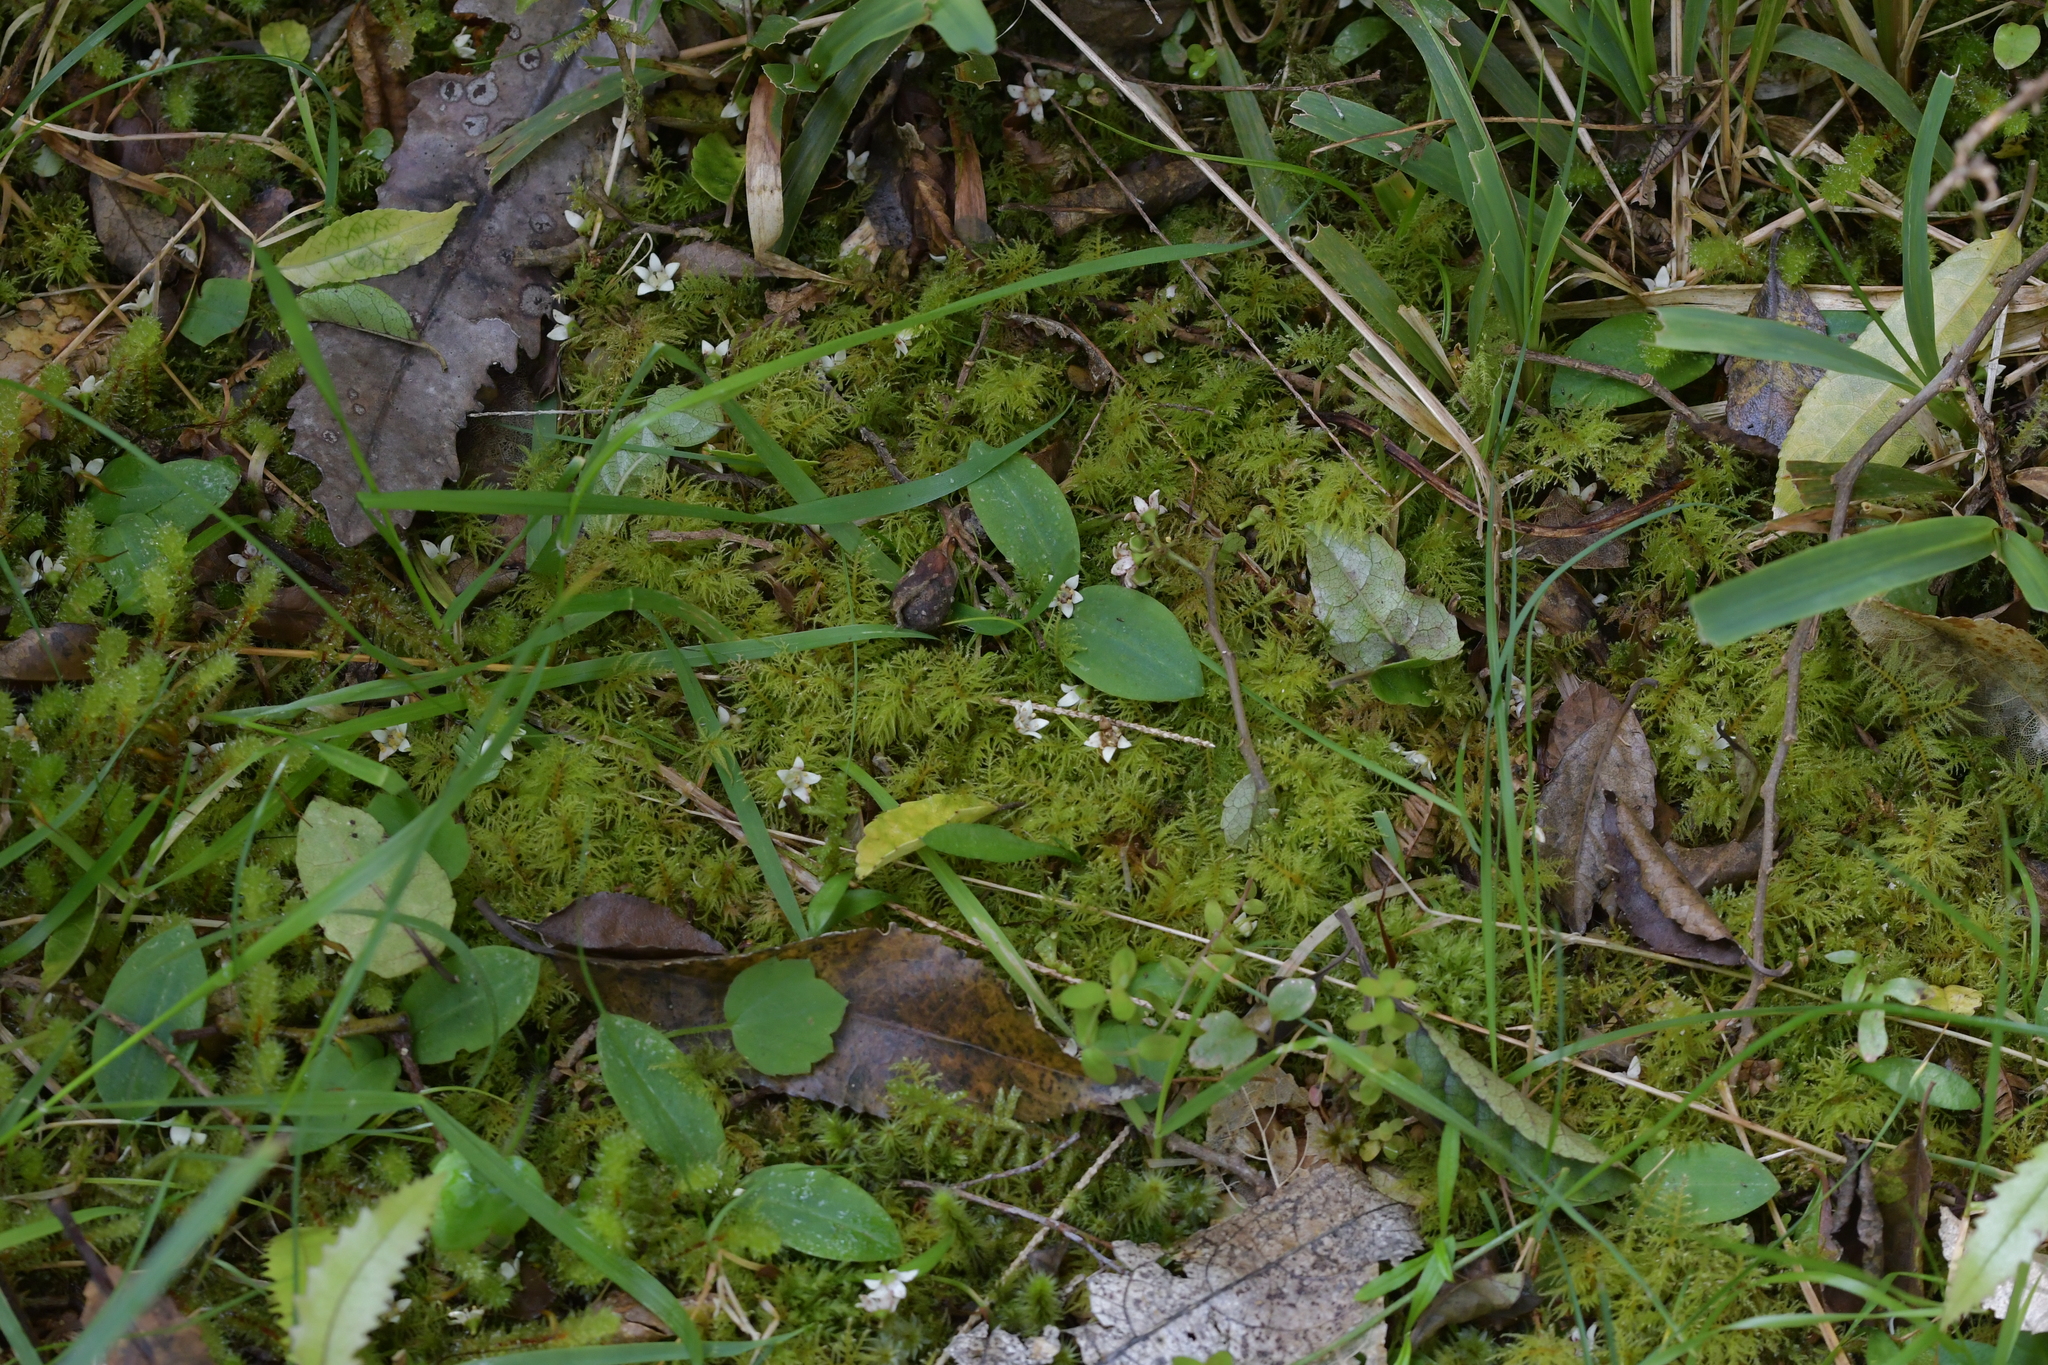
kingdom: Plantae
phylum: Tracheophyta
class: Liliopsida
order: Asparagales
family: Orchidaceae
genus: Chiloglottis
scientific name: Chiloglottis cornuta
